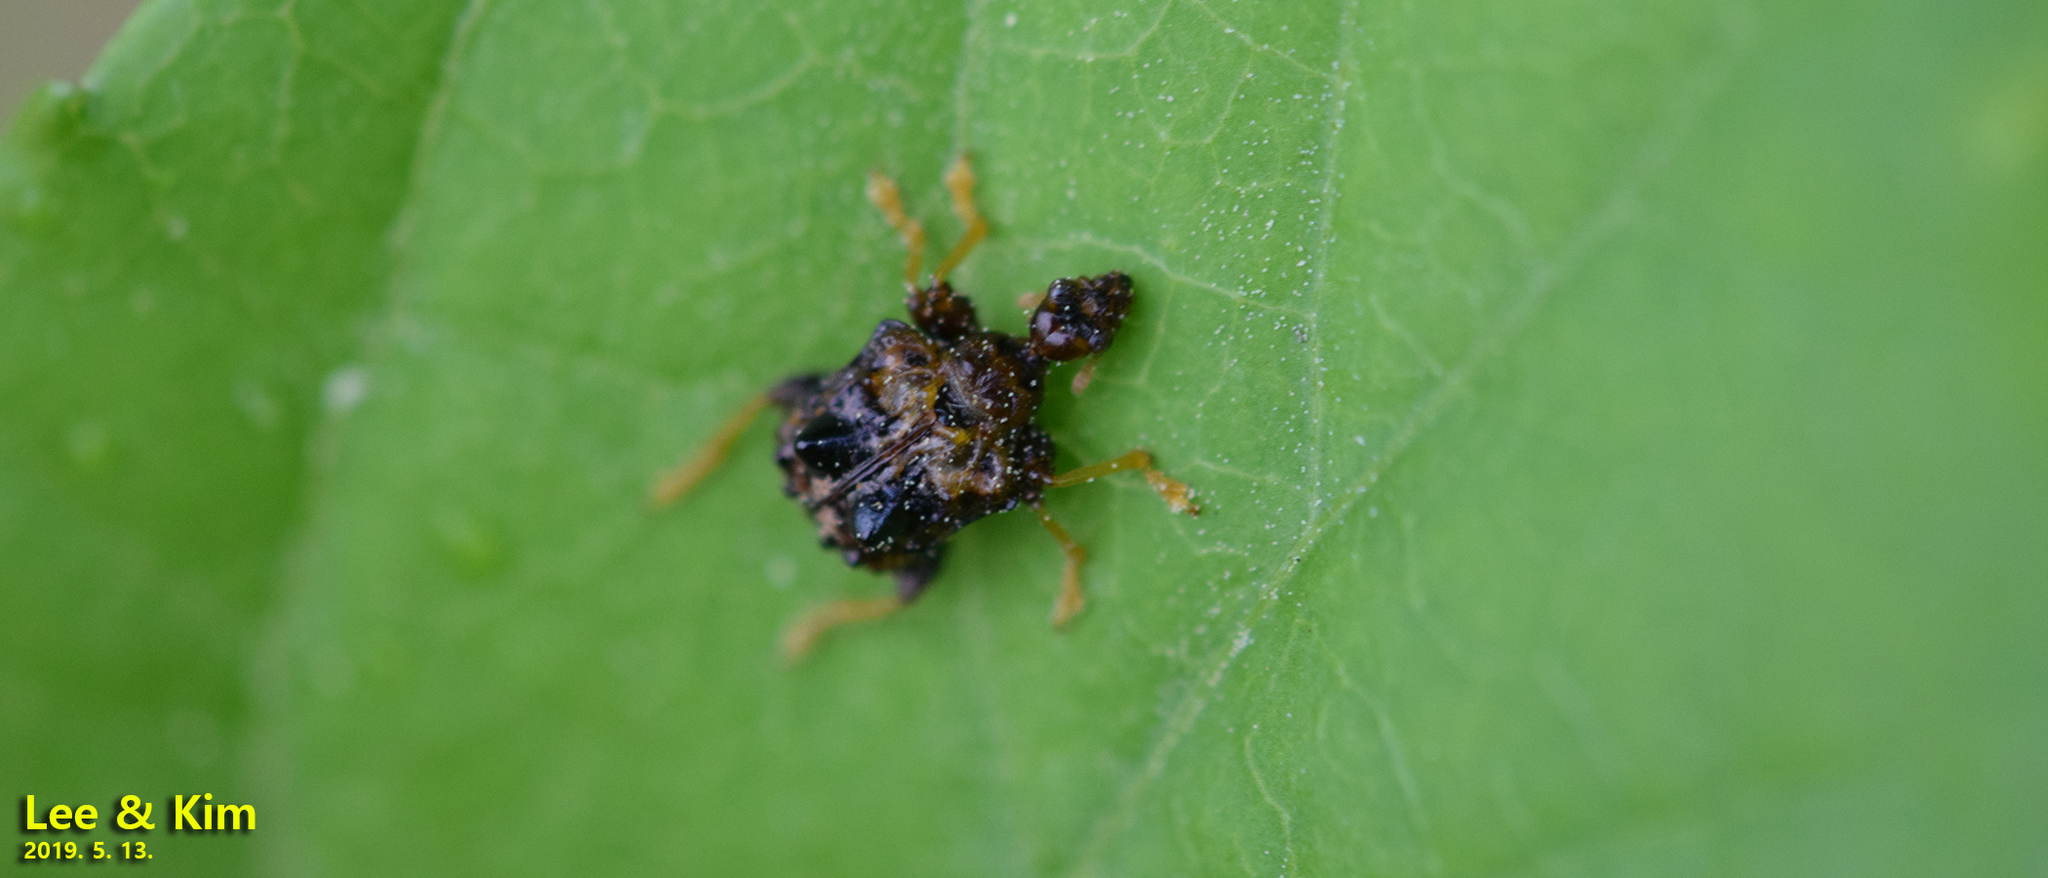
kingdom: Animalia
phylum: Arthropoda
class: Insecta
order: Coleoptera
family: Attelabidae
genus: Paroplapoderus
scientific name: Paroplapoderus angulipennis
